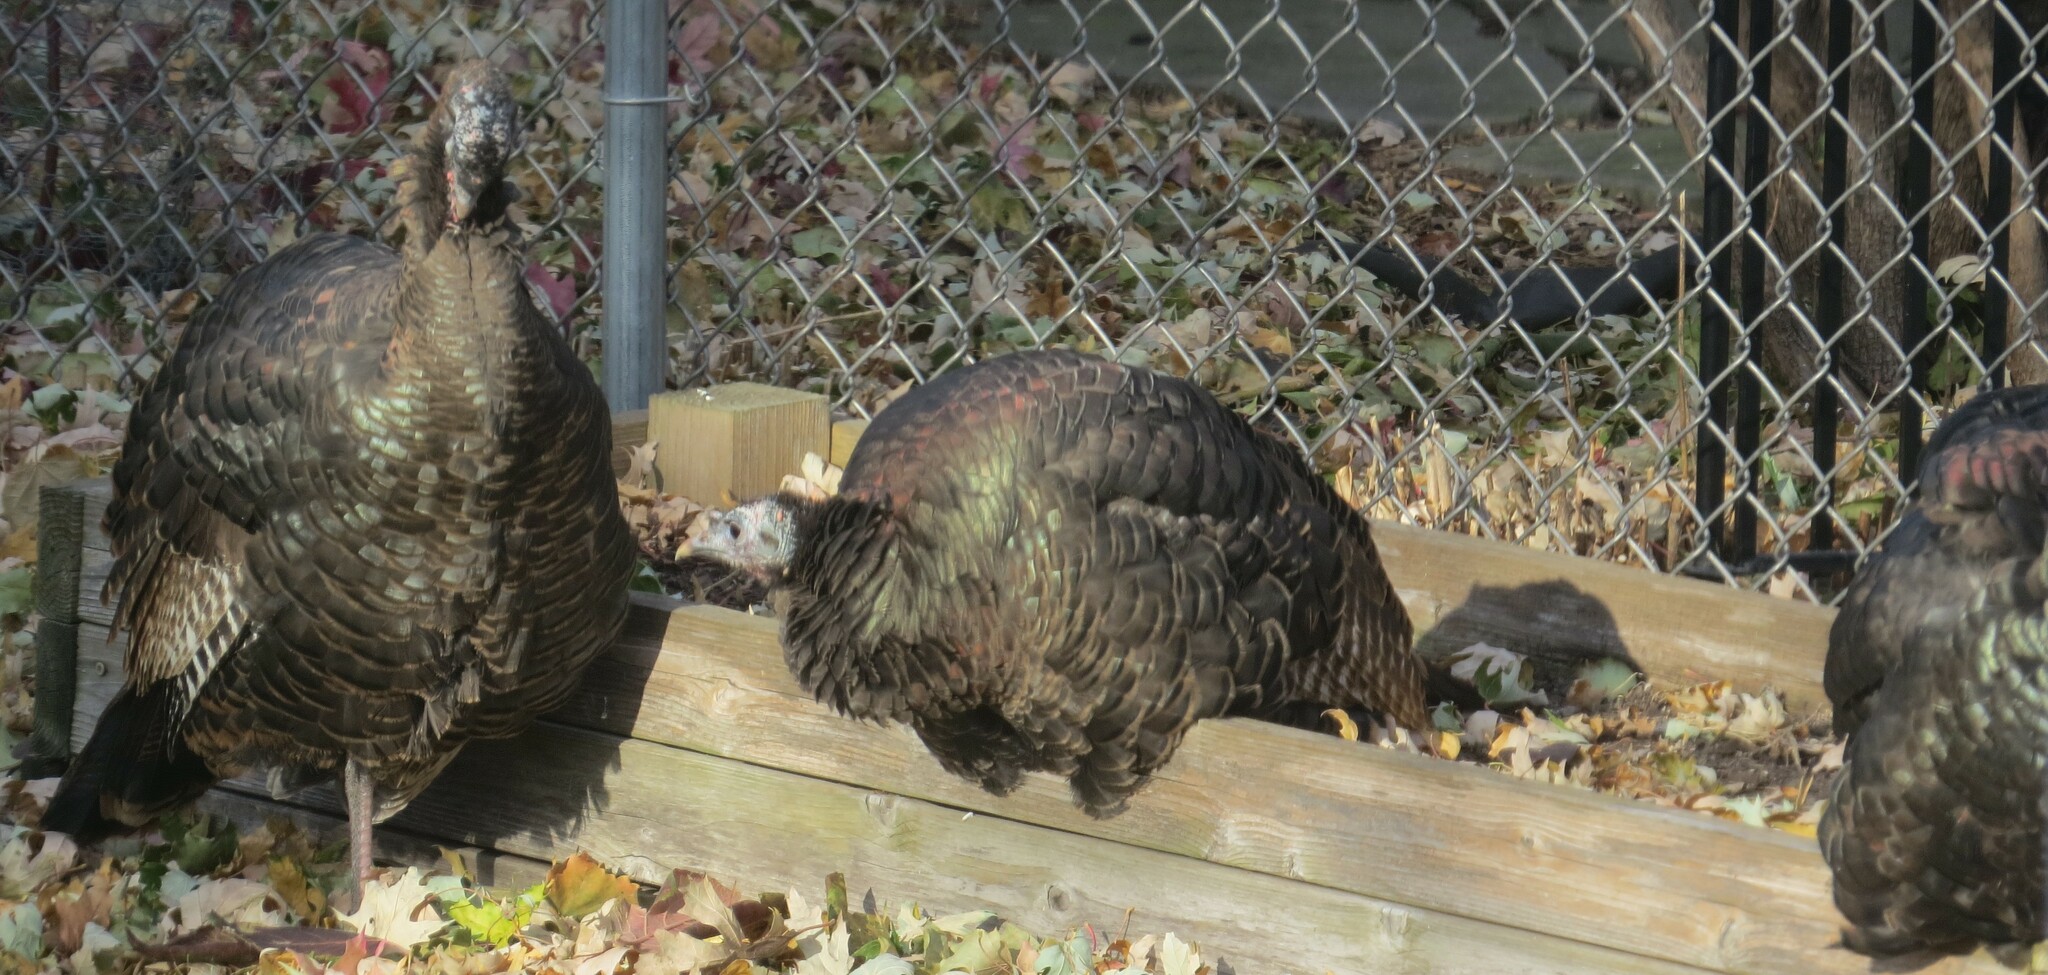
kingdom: Animalia
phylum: Chordata
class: Aves
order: Galliformes
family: Phasianidae
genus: Meleagris
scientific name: Meleagris gallopavo
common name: Wild turkey
